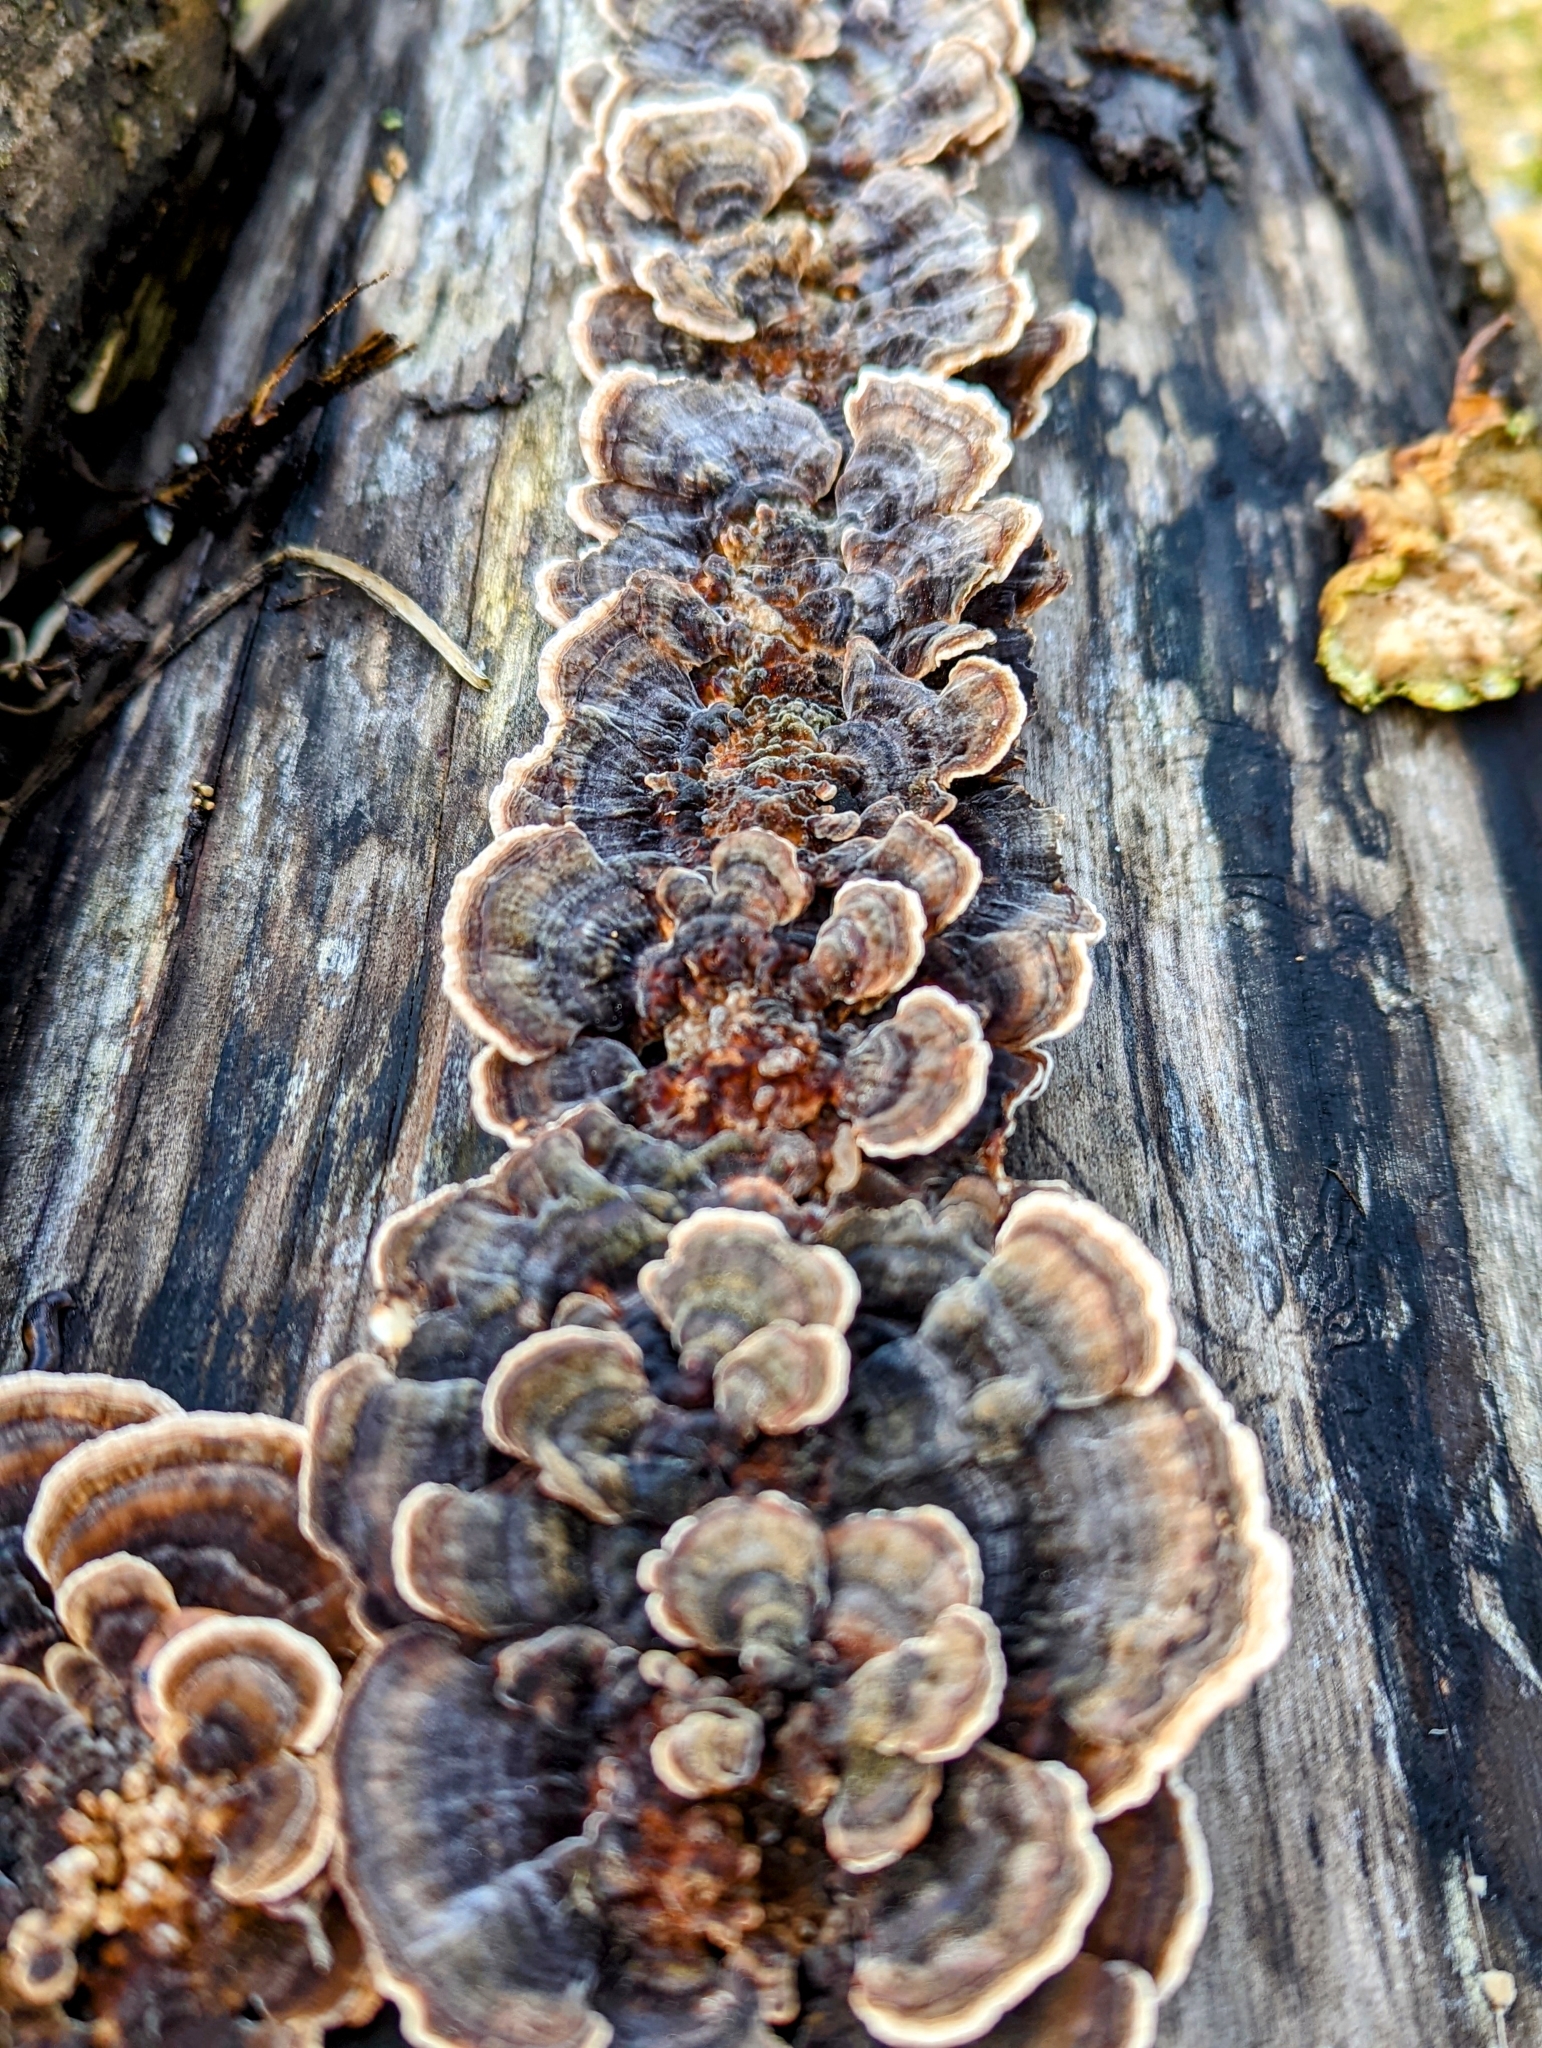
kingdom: Fungi
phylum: Basidiomycota
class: Agaricomycetes
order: Polyporales
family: Polyporaceae
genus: Trametes
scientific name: Trametes versicolor
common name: Turkeytail
